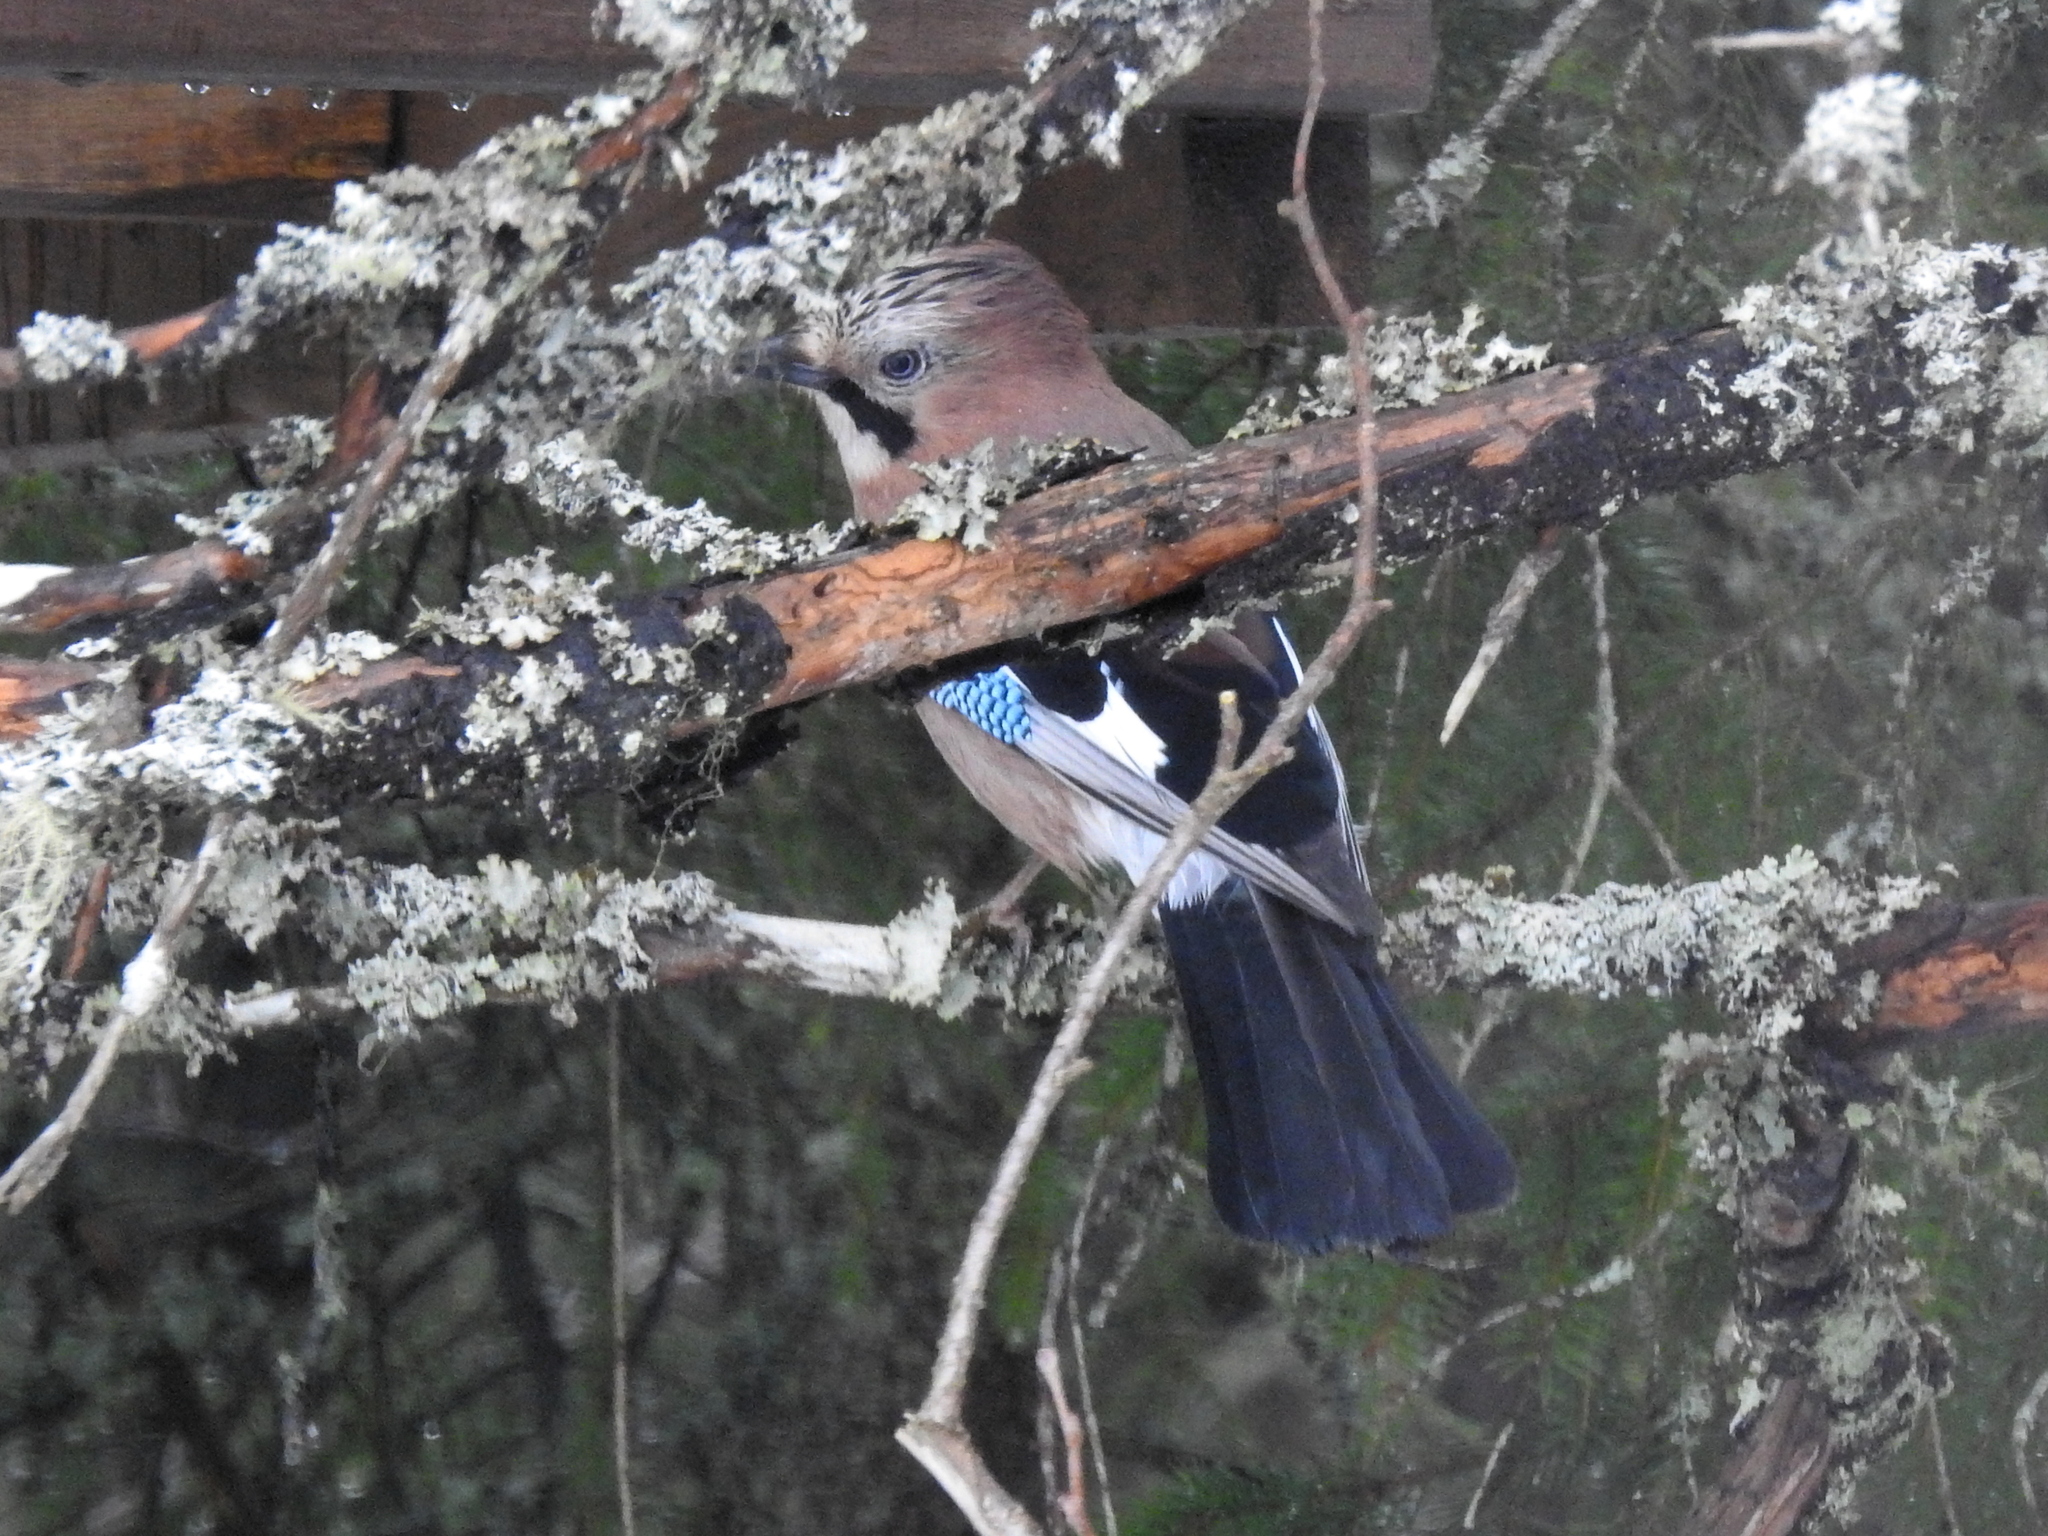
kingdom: Animalia
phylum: Chordata
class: Aves
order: Passeriformes
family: Corvidae
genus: Garrulus
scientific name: Garrulus glandarius
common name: Eurasian jay
